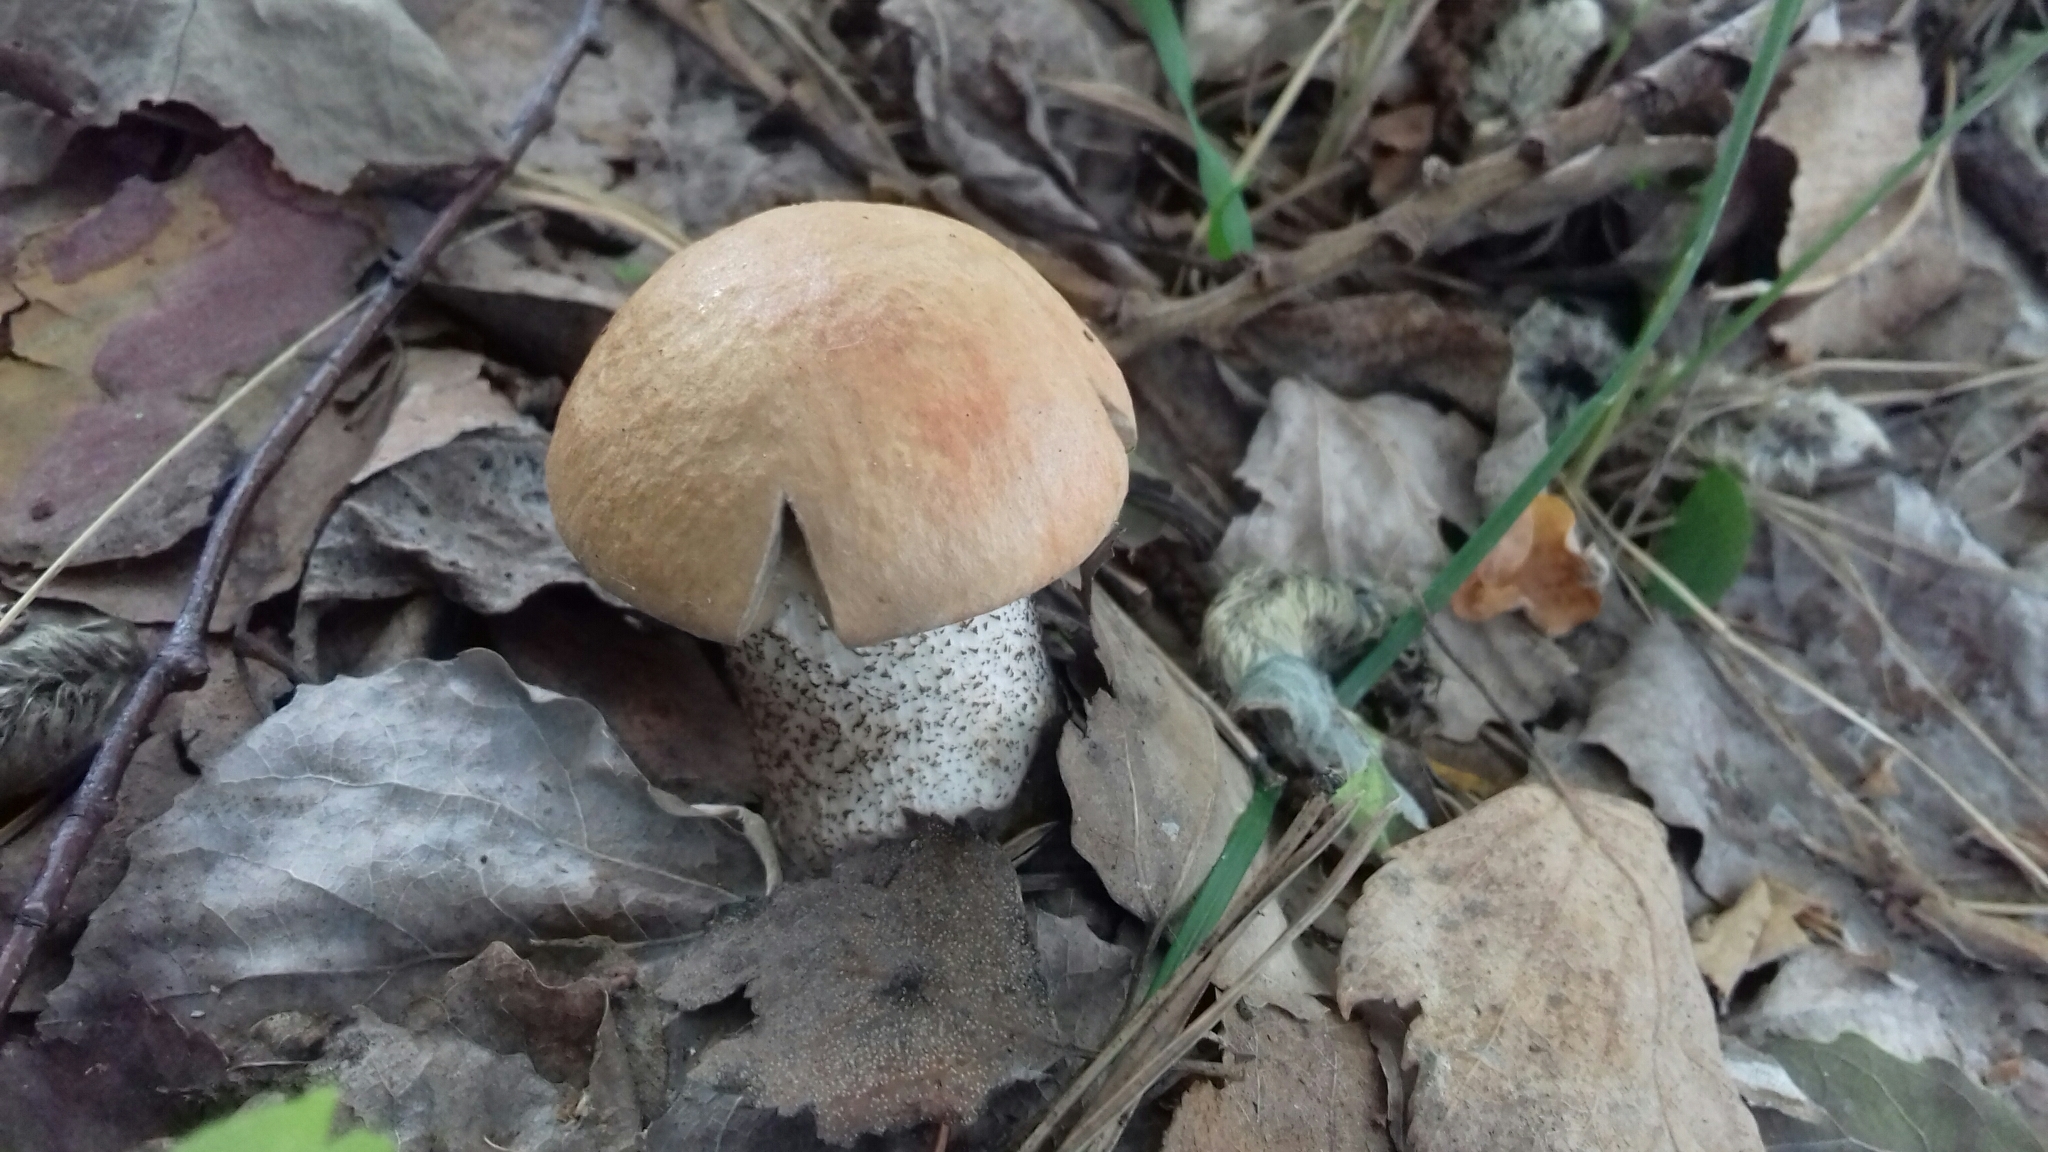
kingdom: Fungi
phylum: Basidiomycota
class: Agaricomycetes
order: Boletales
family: Boletaceae
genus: Leccinum
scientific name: Leccinum versipelle
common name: Orange birch bolete
